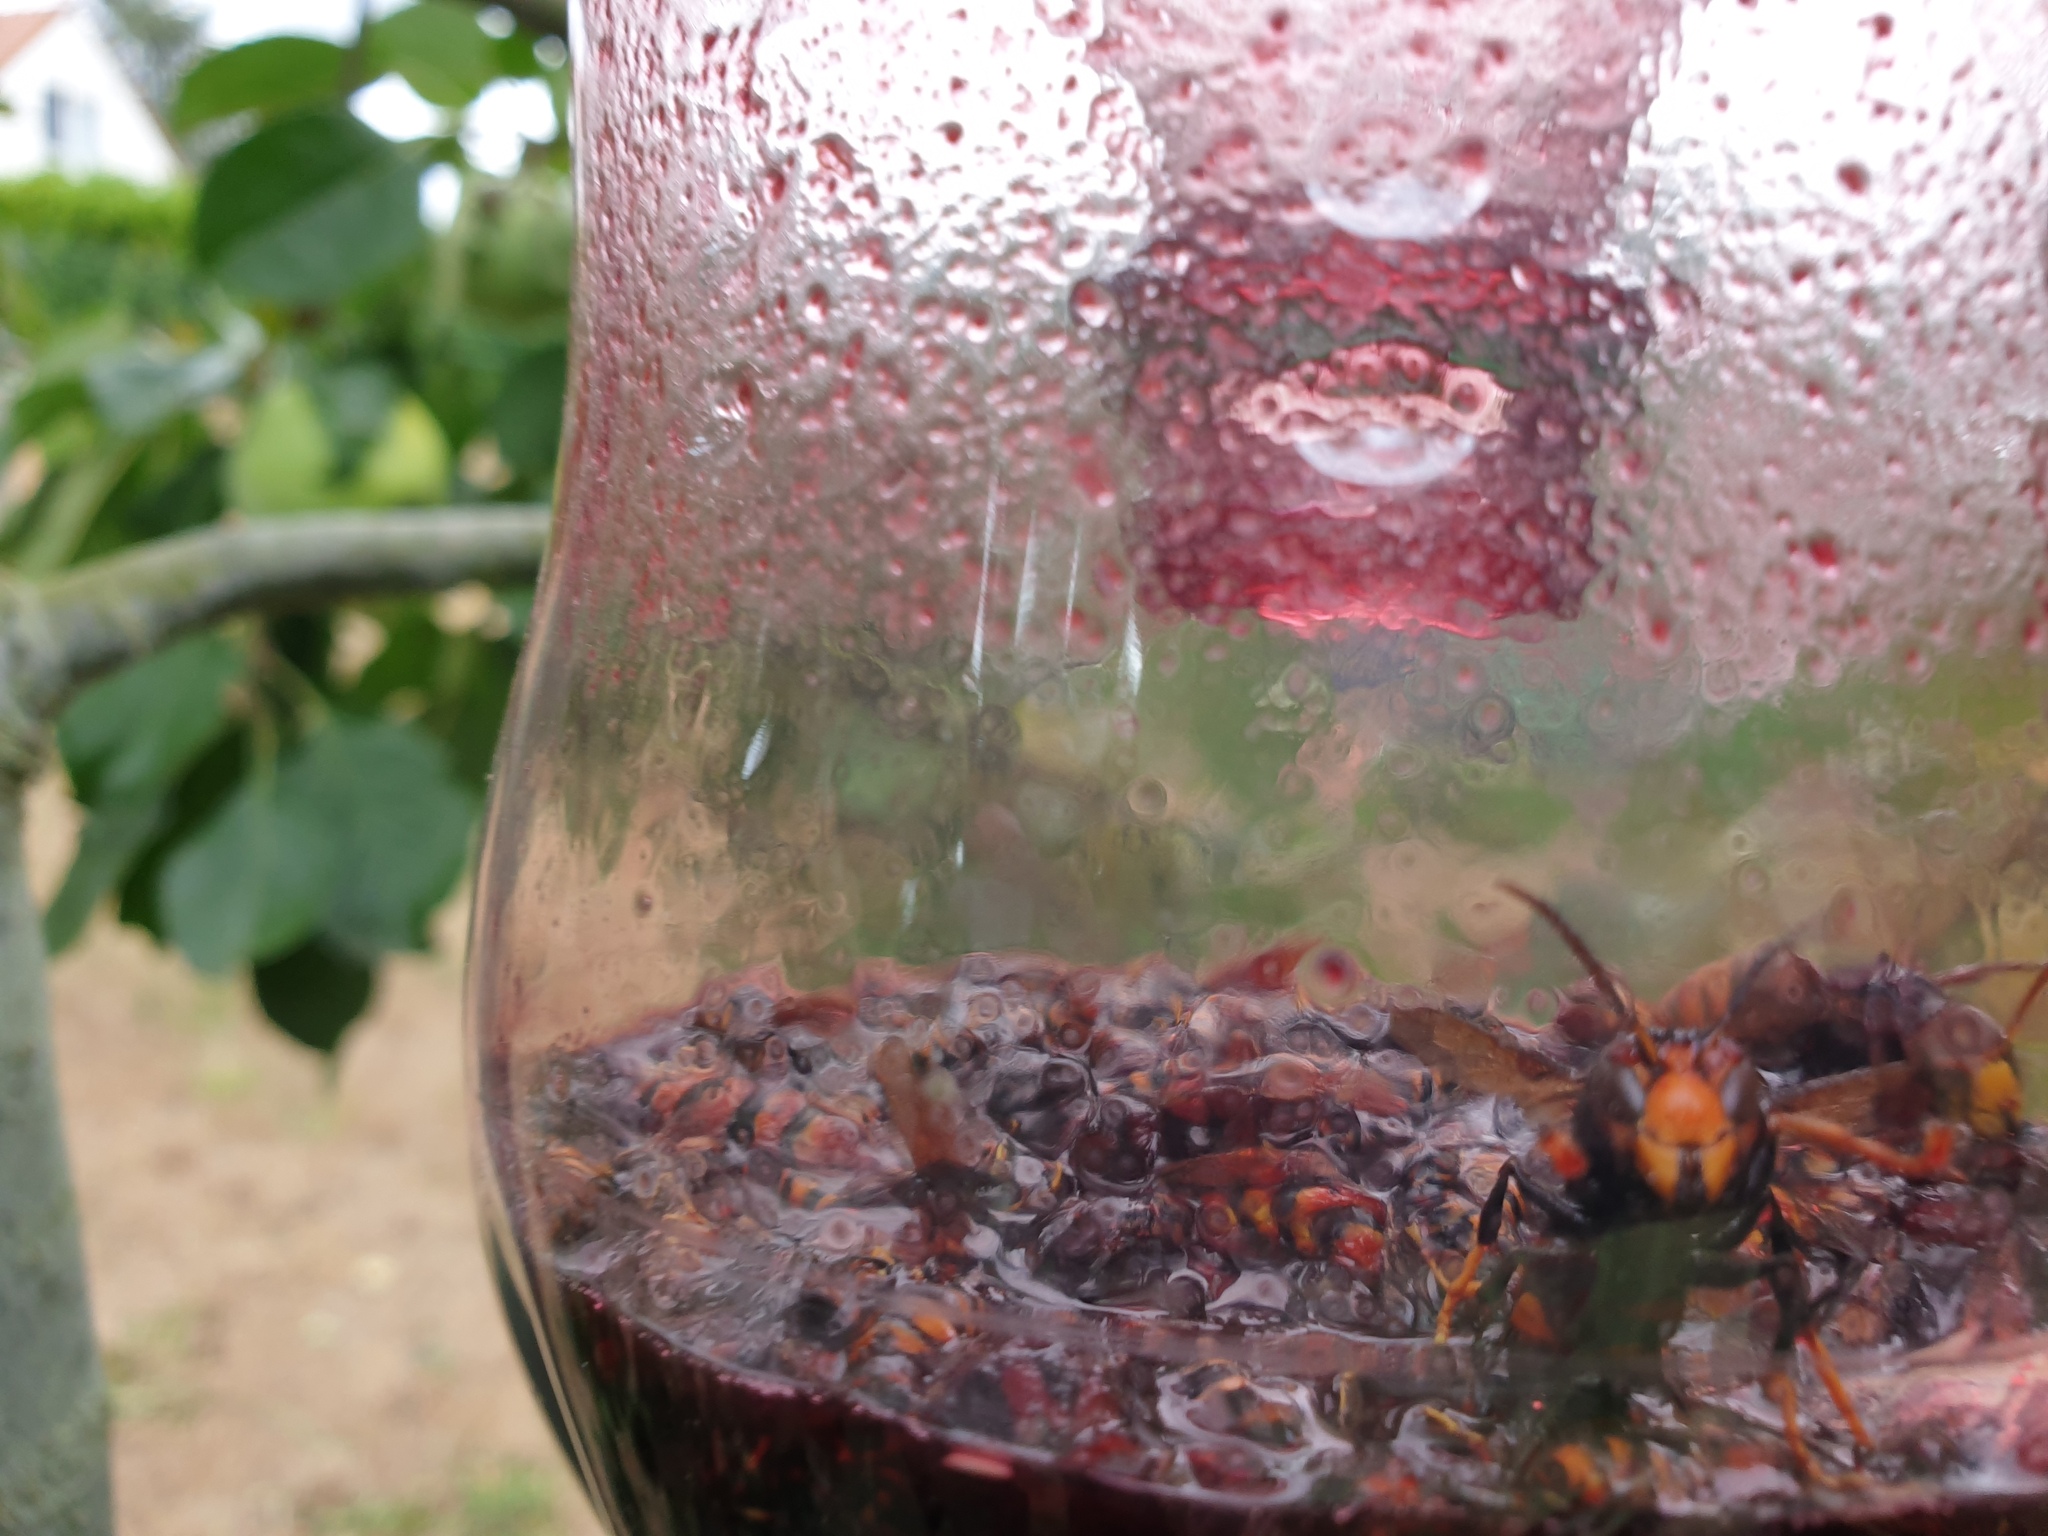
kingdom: Animalia
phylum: Arthropoda
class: Insecta
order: Hymenoptera
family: Vespidae
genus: Vespa
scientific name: Vespa velutina
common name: Asian hornet
